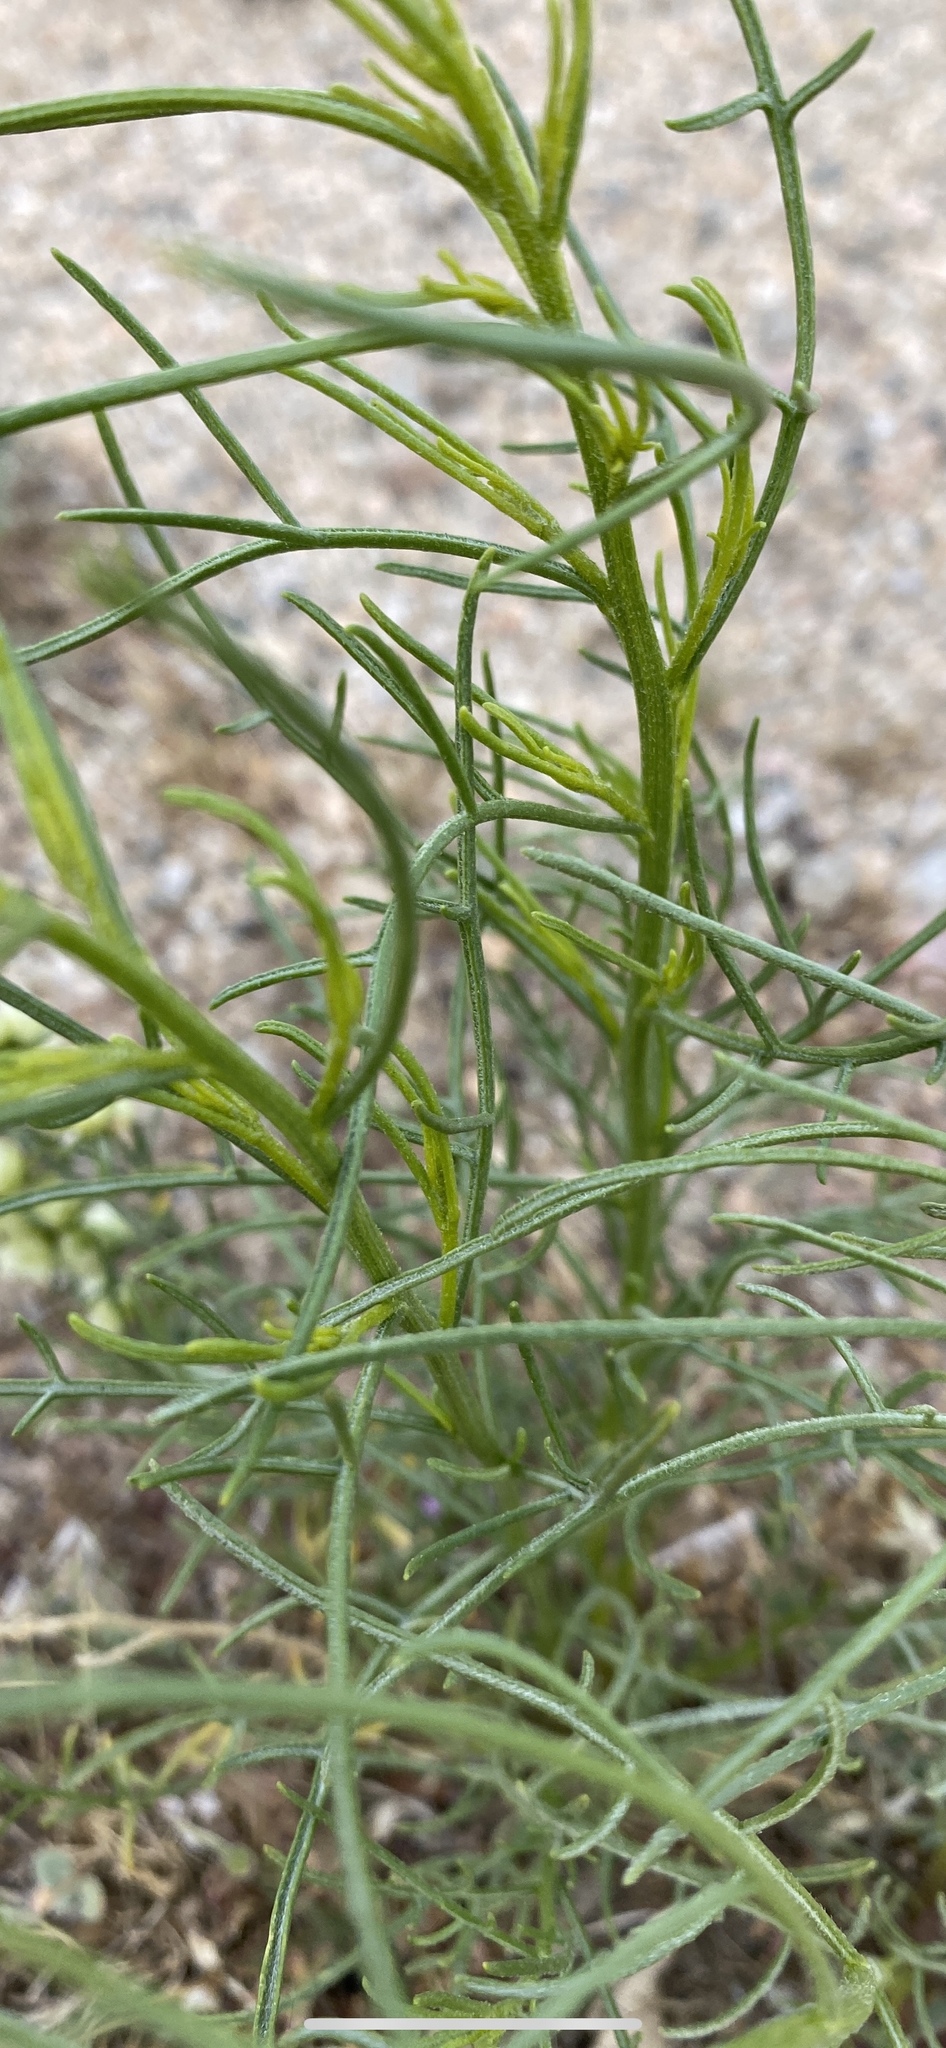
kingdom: Plantae
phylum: Tracheophyta
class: Magnoliopsida
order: Asterales
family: Asteraceae
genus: Ambrosia
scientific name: Ambrosia salsola
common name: Burrobrush
